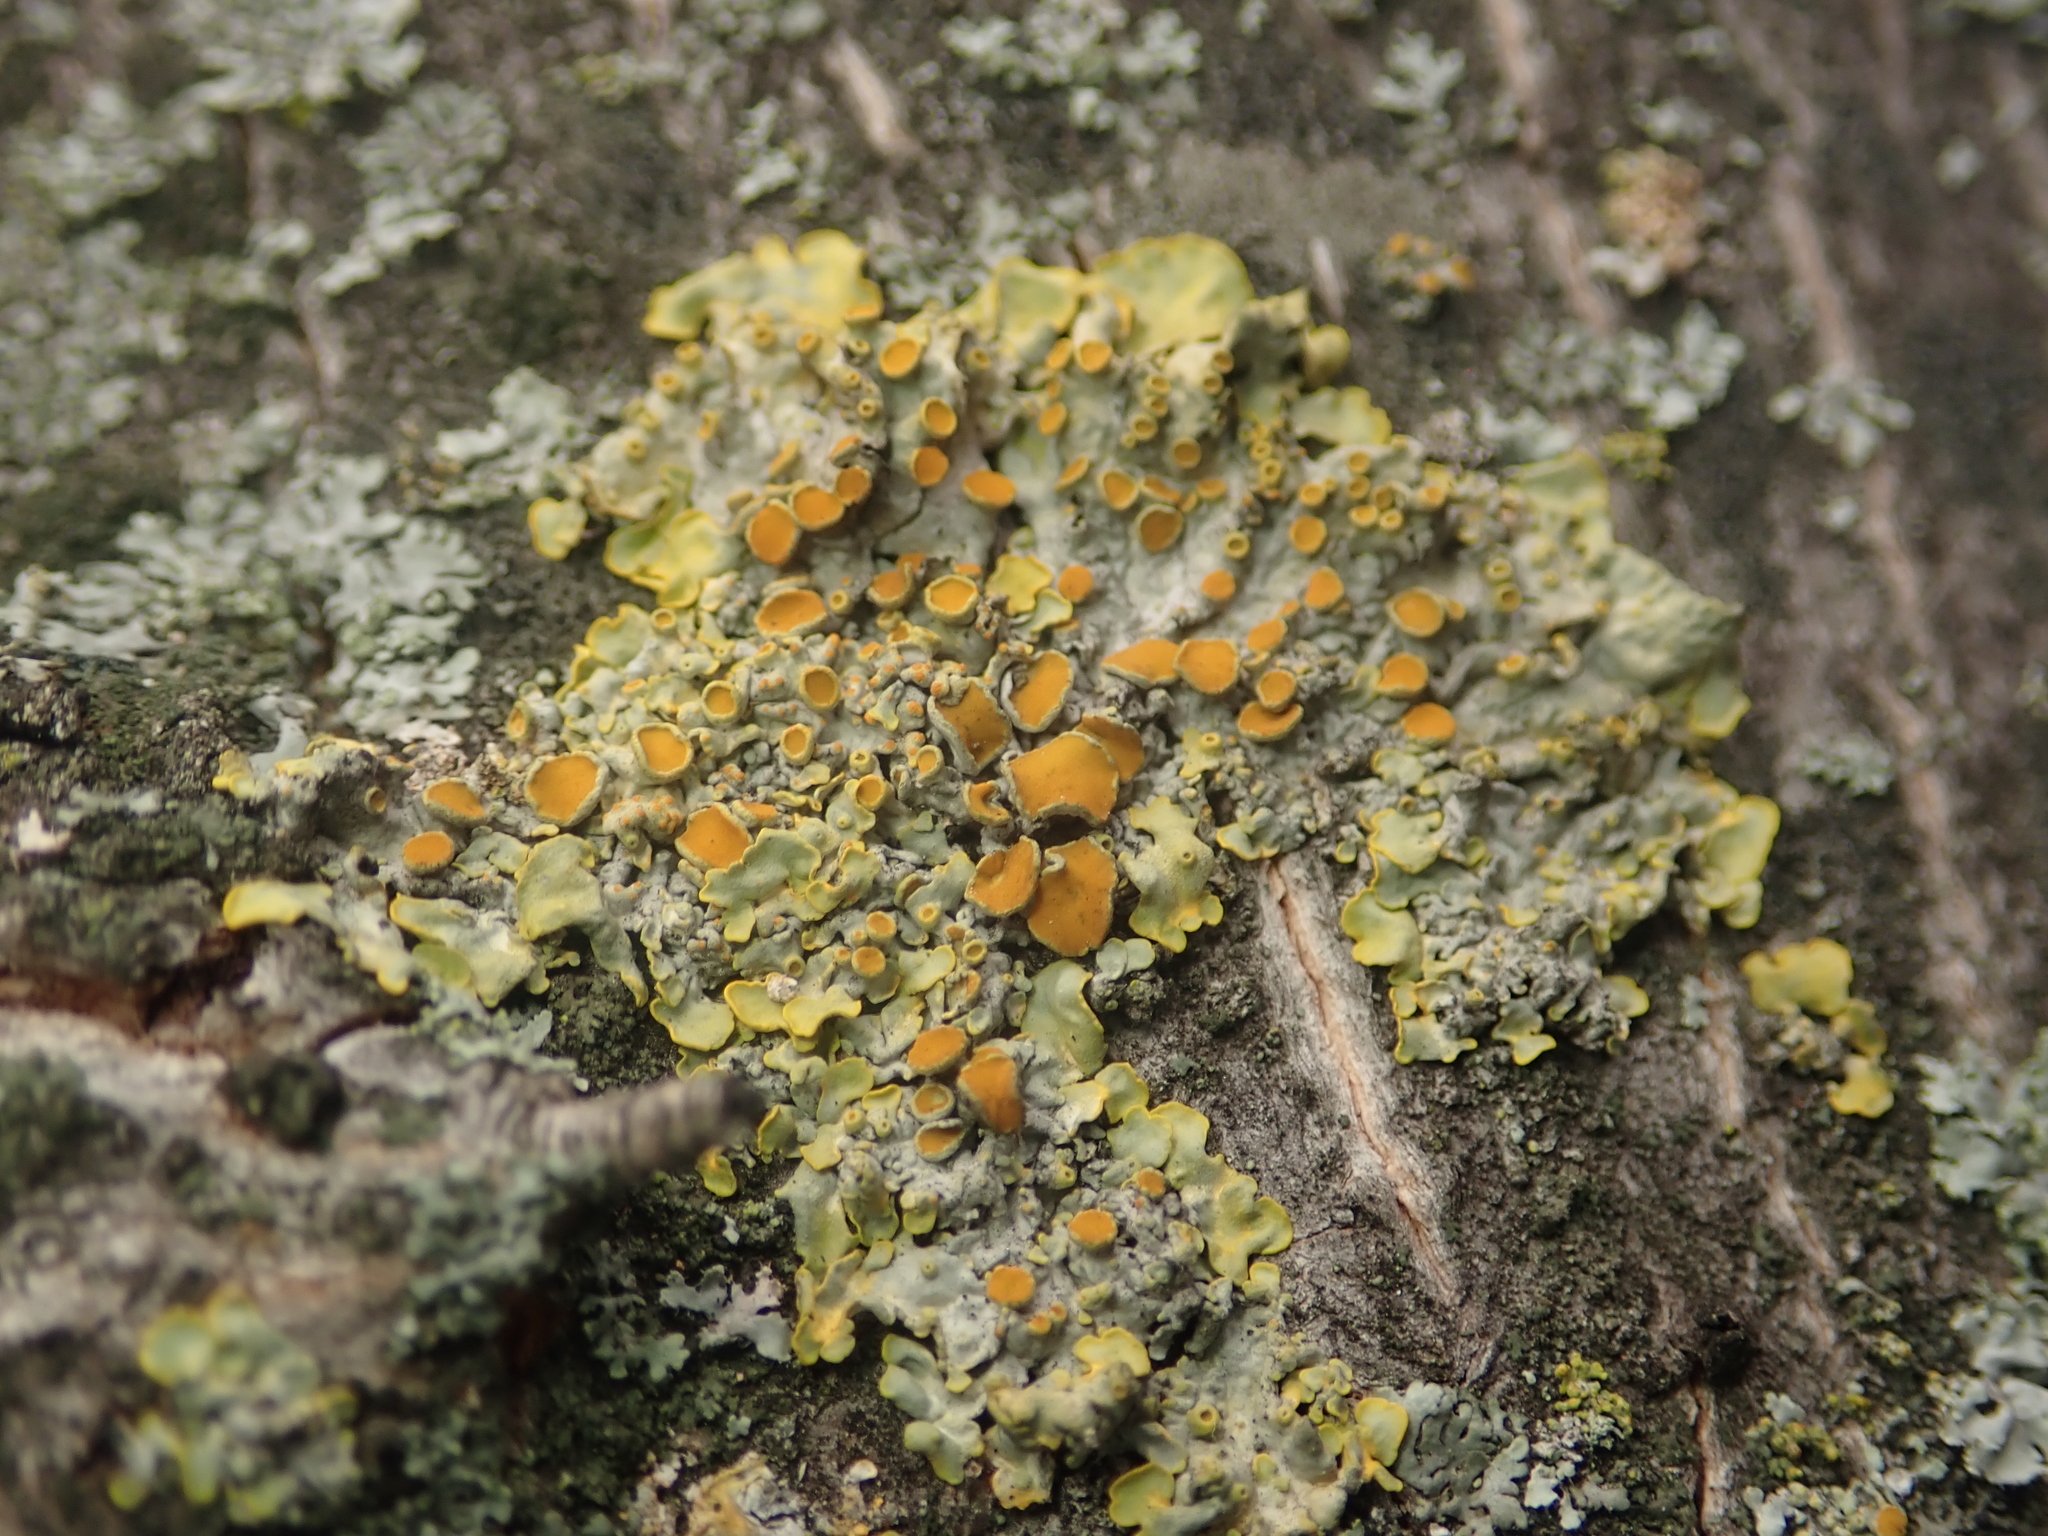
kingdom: Fungi
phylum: Ascomycota
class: Lecanoromycetes
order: Teloschistales
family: Teloschistaceae
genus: Xanthoria
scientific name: Xanthoria parietina
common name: Common orange lichen
